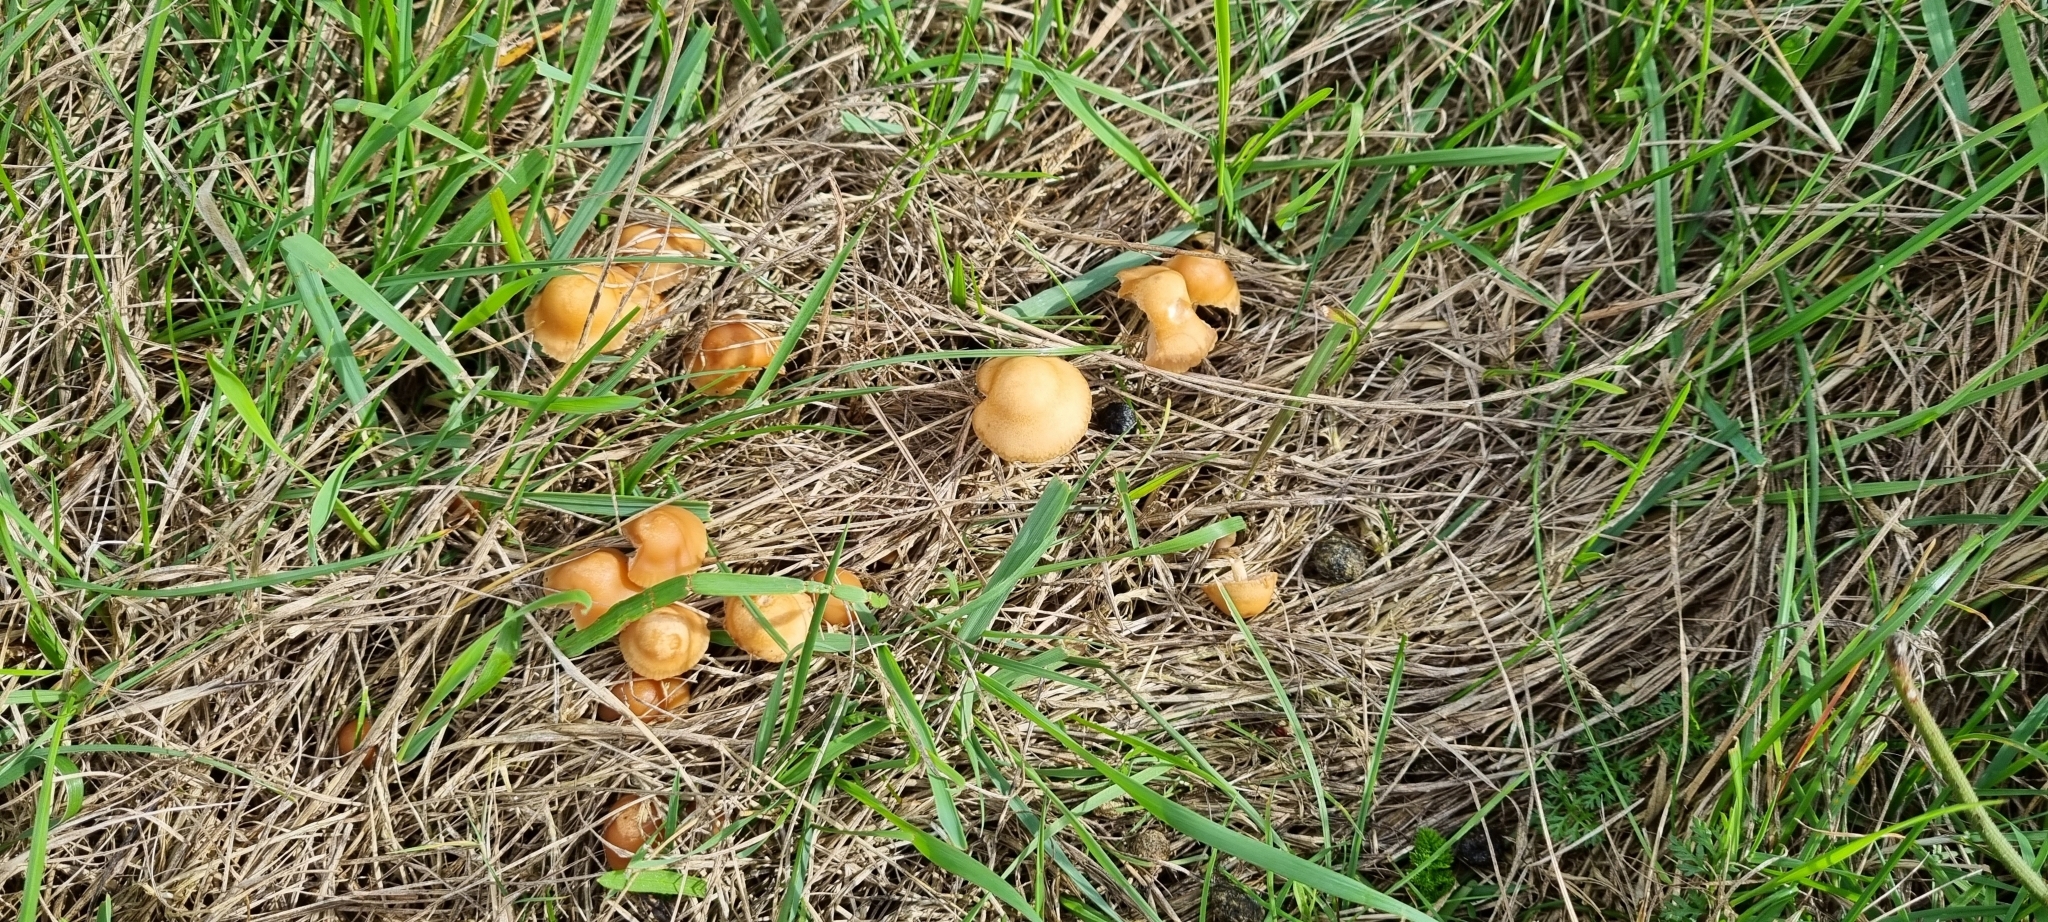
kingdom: Fungi
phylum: Basidiomycota
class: Agaricomycetes
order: Agaricales
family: Marasmiaceae
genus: Marasmius
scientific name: Marasmius oreades
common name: Fairy ring champignon
